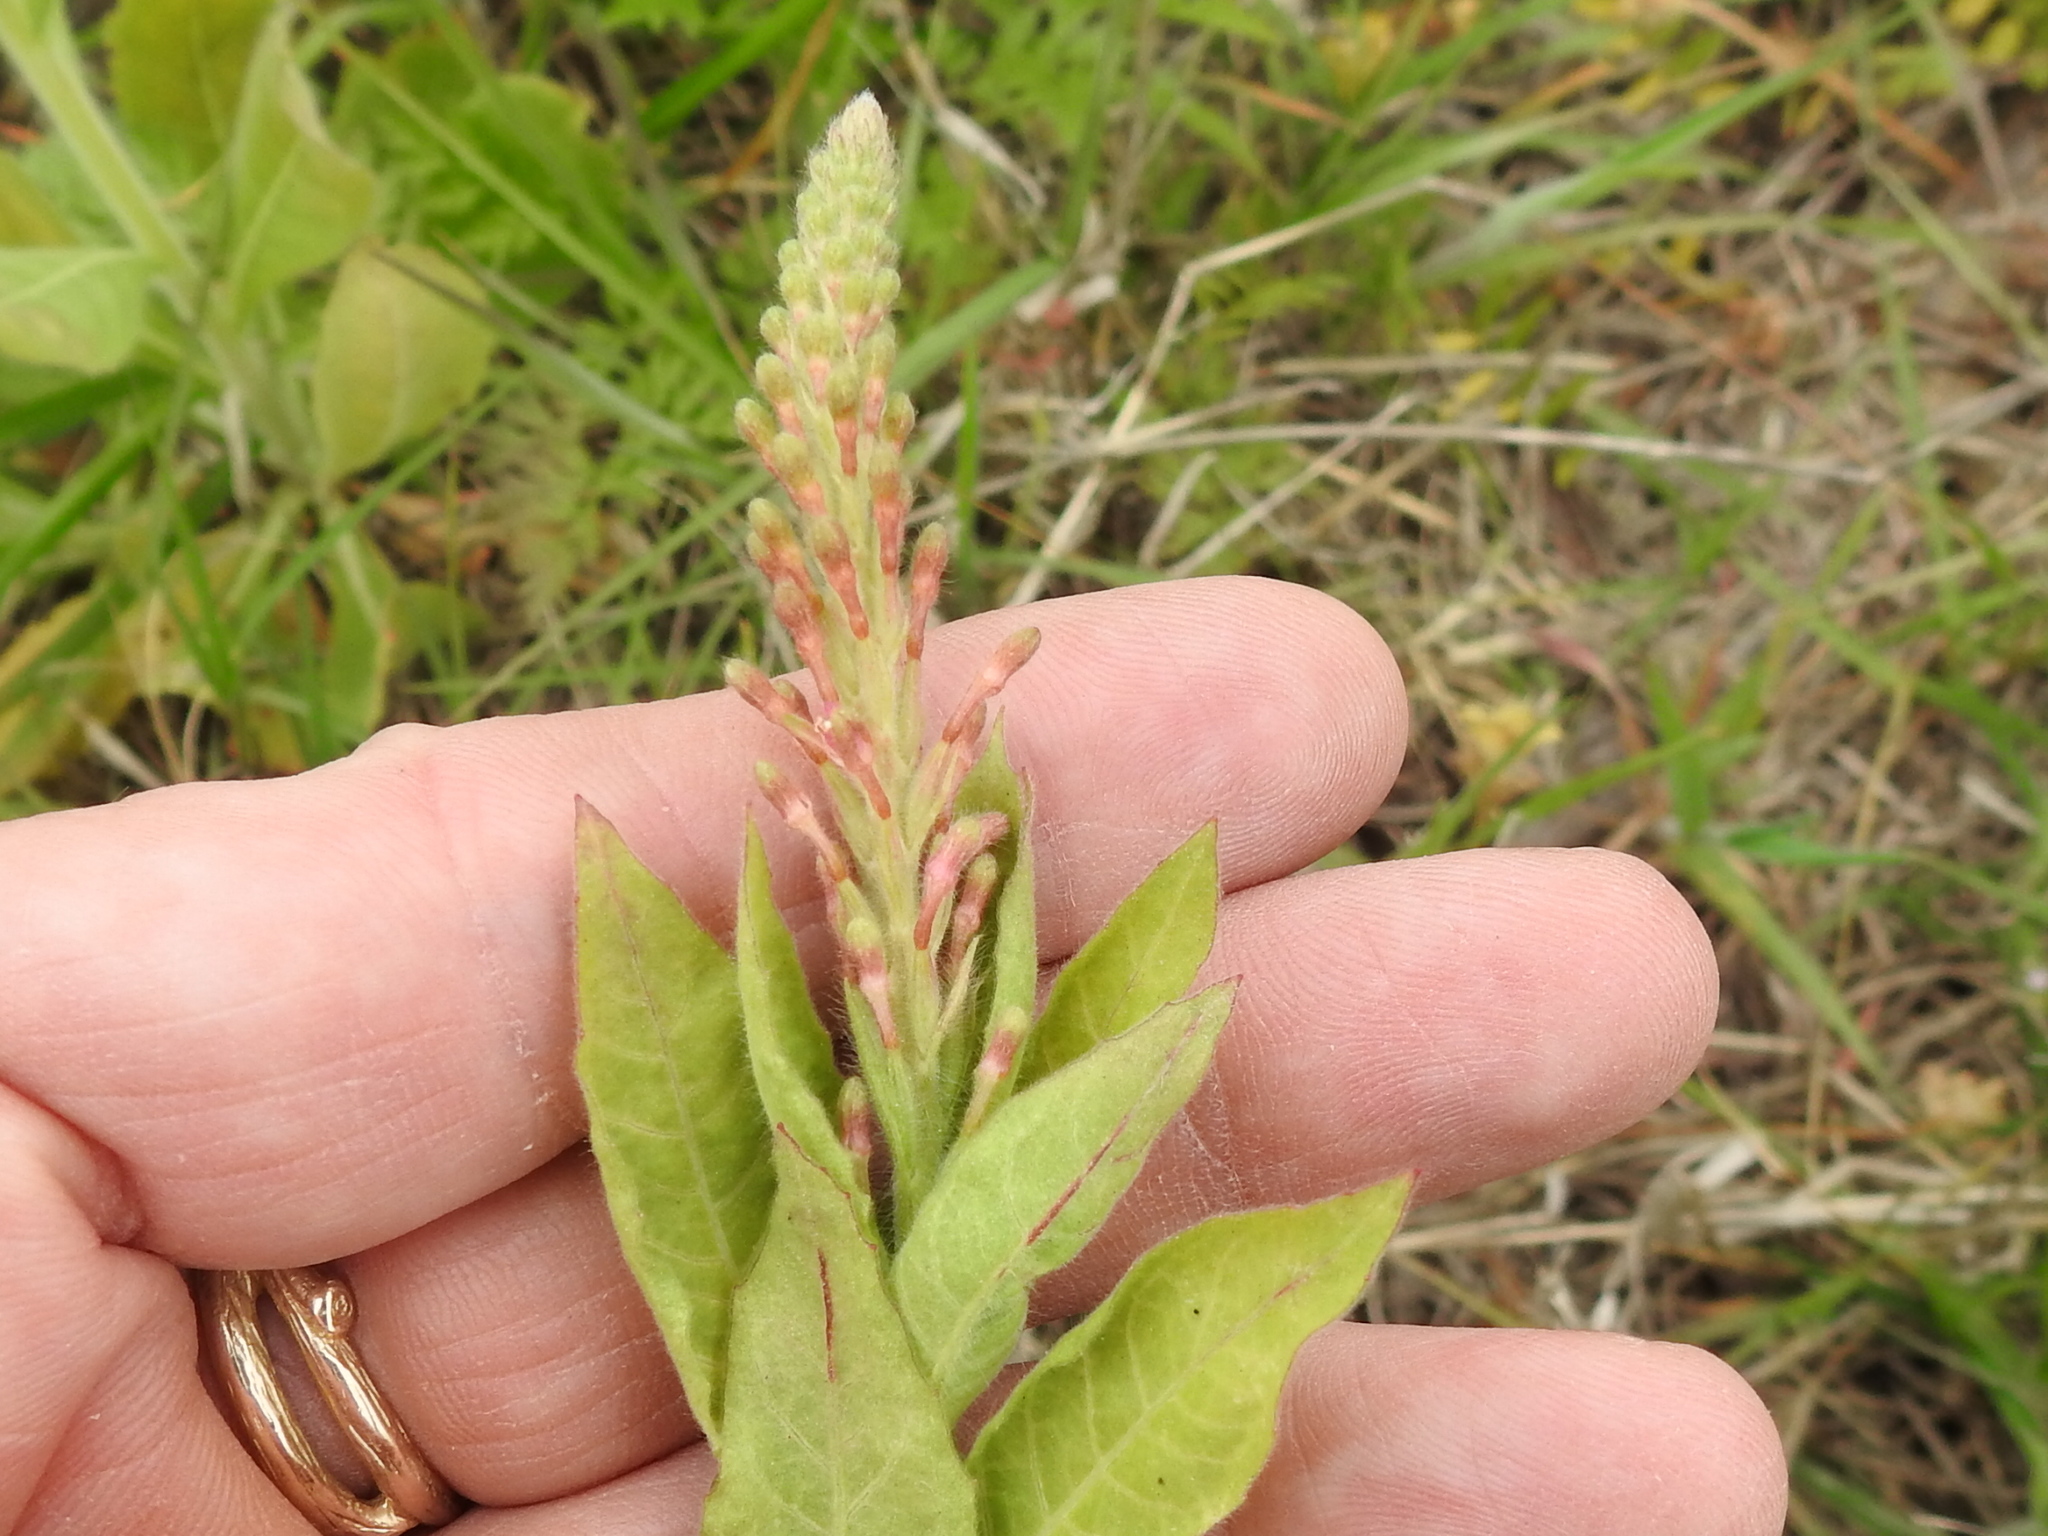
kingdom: Plantae
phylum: Tracheophyta
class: Magnoliopsida
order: Myrtales
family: Onagraceae
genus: Oenothera
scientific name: Oenothera curtiflora
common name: Velvetweed
